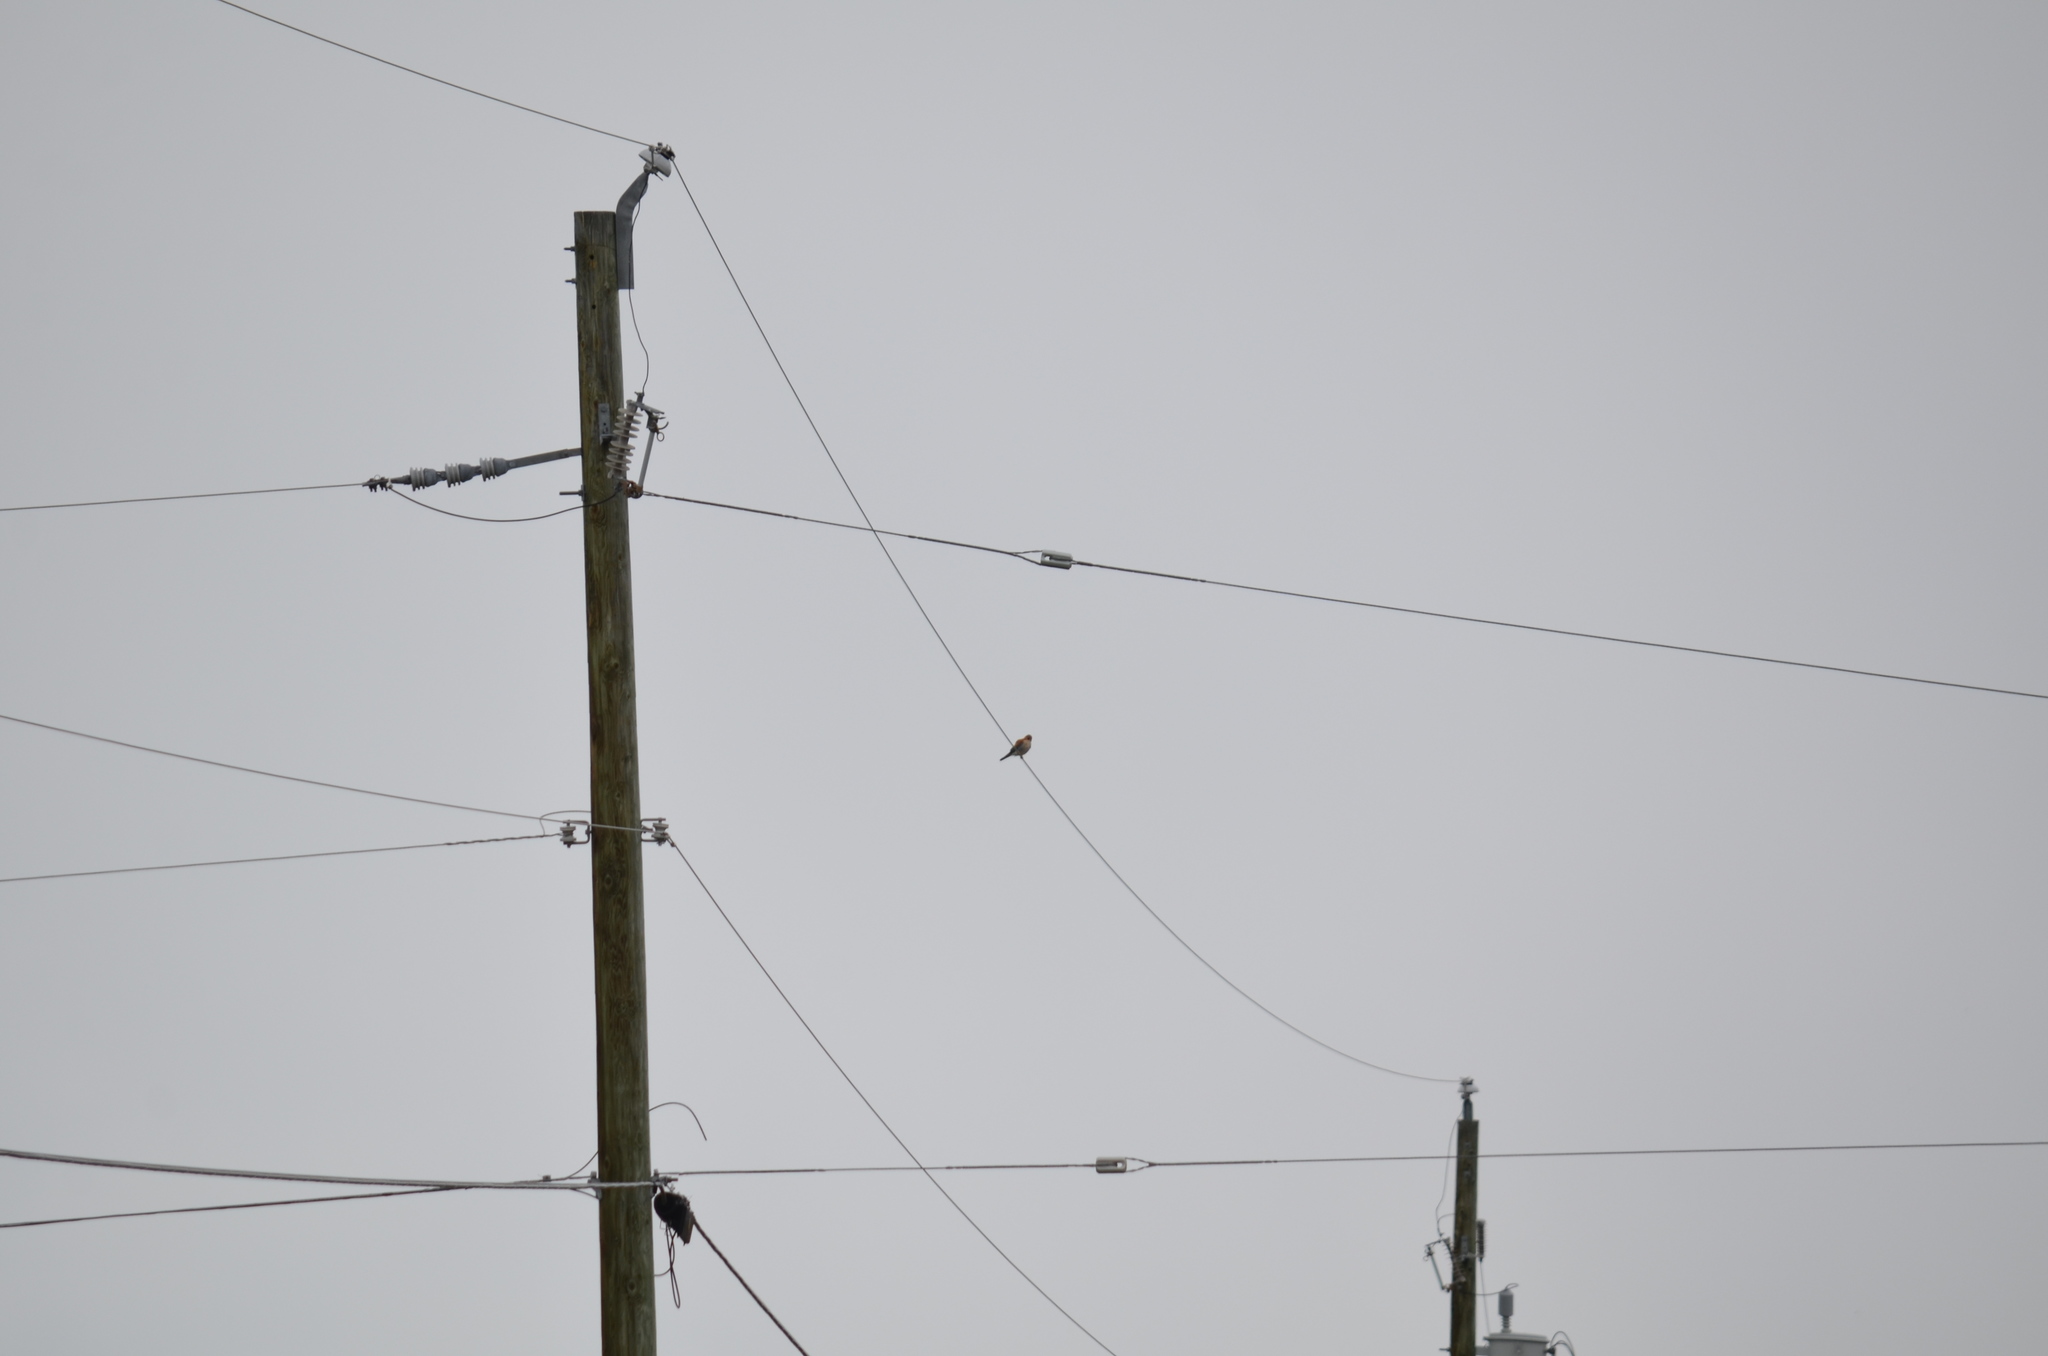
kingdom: Animalia
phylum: Chordata
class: Aves
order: Falconiformes
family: Falconidae
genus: Falco
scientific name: Falco sparverius
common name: American kestrel
